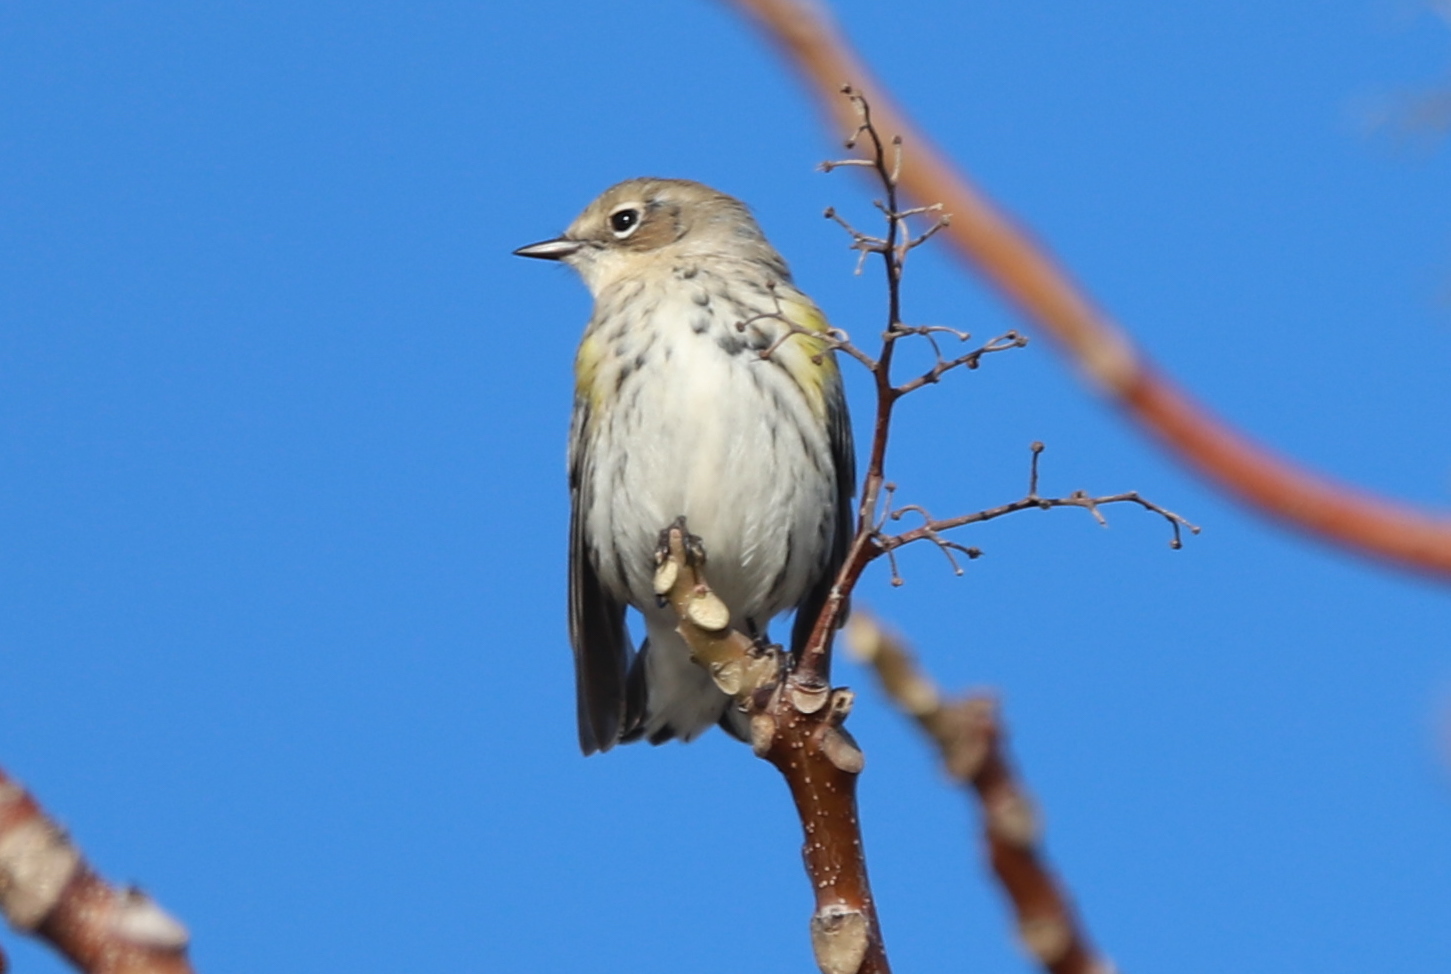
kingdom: Animalia
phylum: Chordata
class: Aves
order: Passeriformes
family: Parulidae
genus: Setophaga
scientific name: Setophaga coronata
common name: Myrtle warbler
